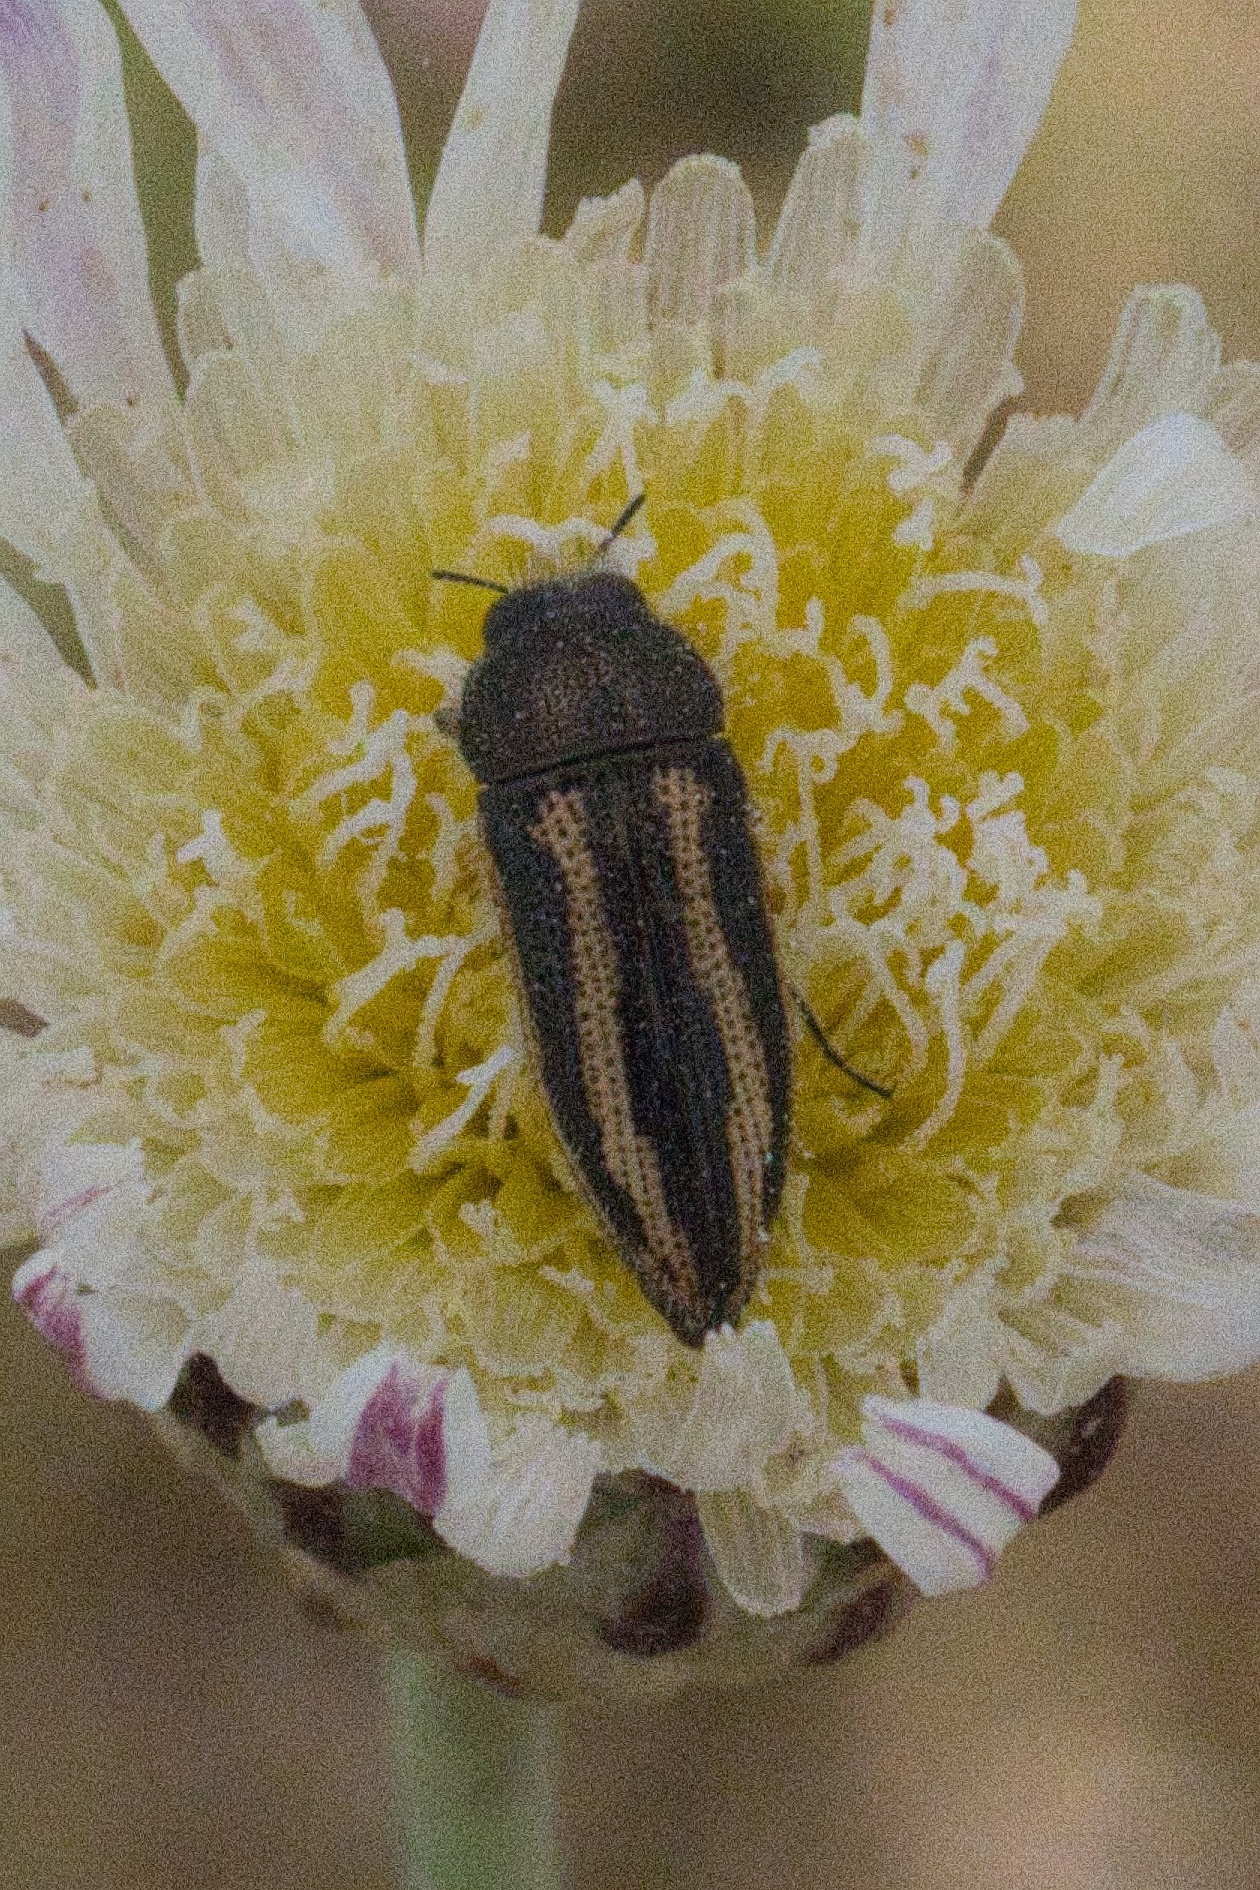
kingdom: Animalia
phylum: Arthropoda
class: Insecta
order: Coleoptera
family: Buprestidae
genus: Acmaeodera
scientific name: Acmaeodera nigrovittata
